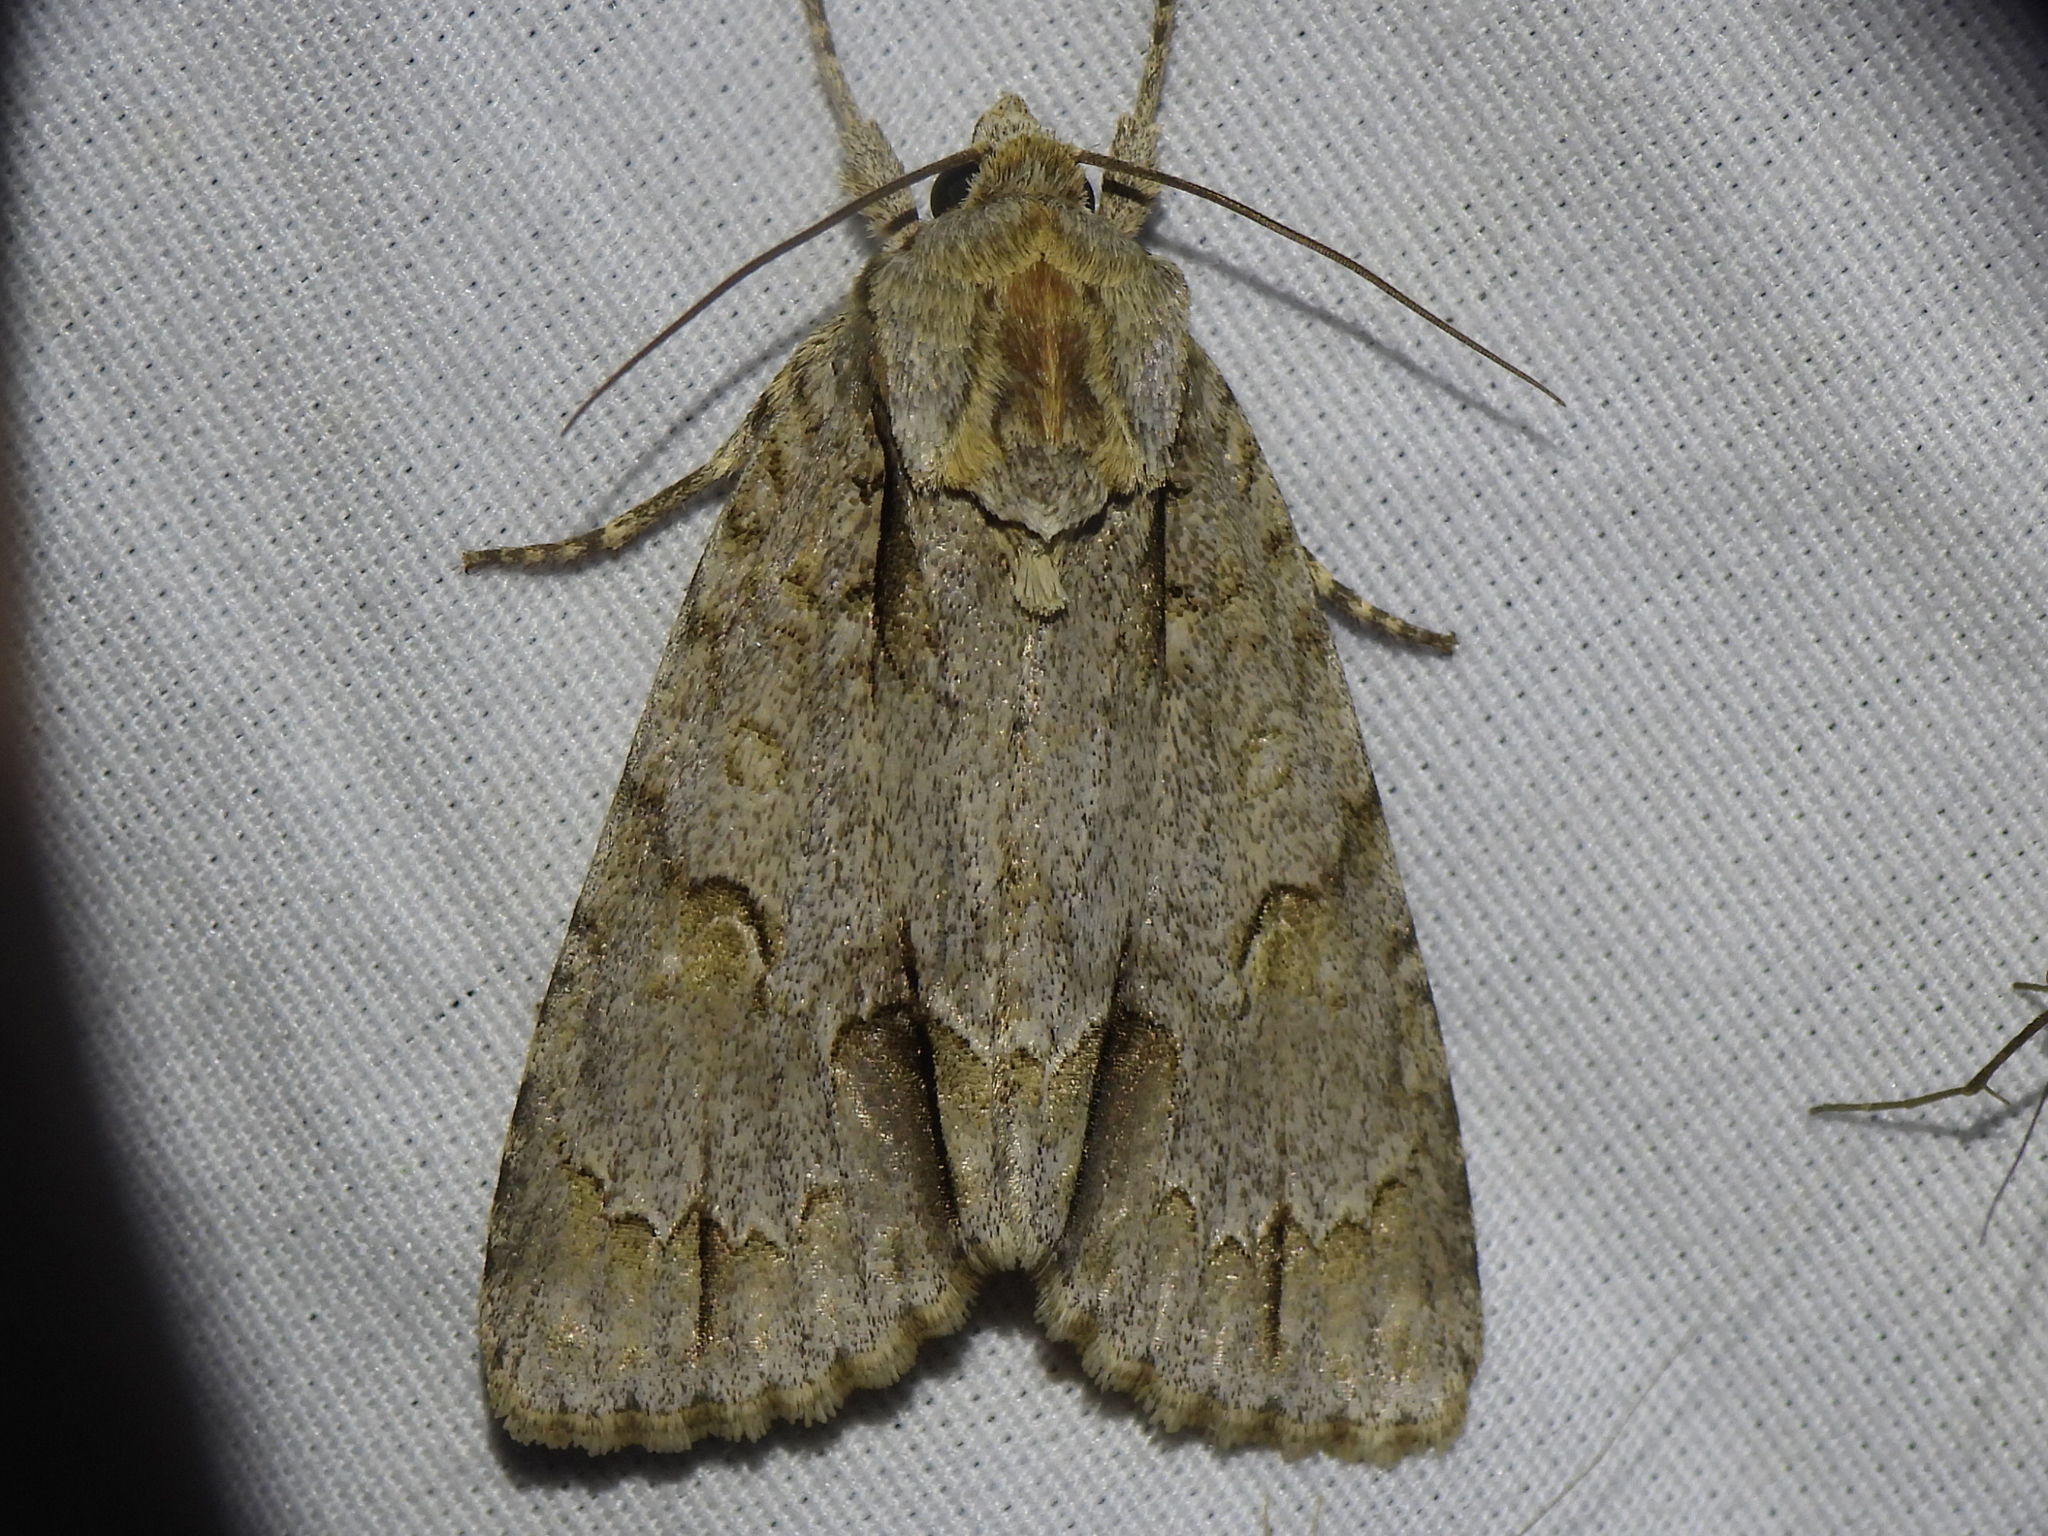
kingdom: Animalia
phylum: Arthropoda
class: Insecta
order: Lepidoptera
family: Noctuidae
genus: Acronicta
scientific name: Acronicta morula
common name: Ochre dagger
